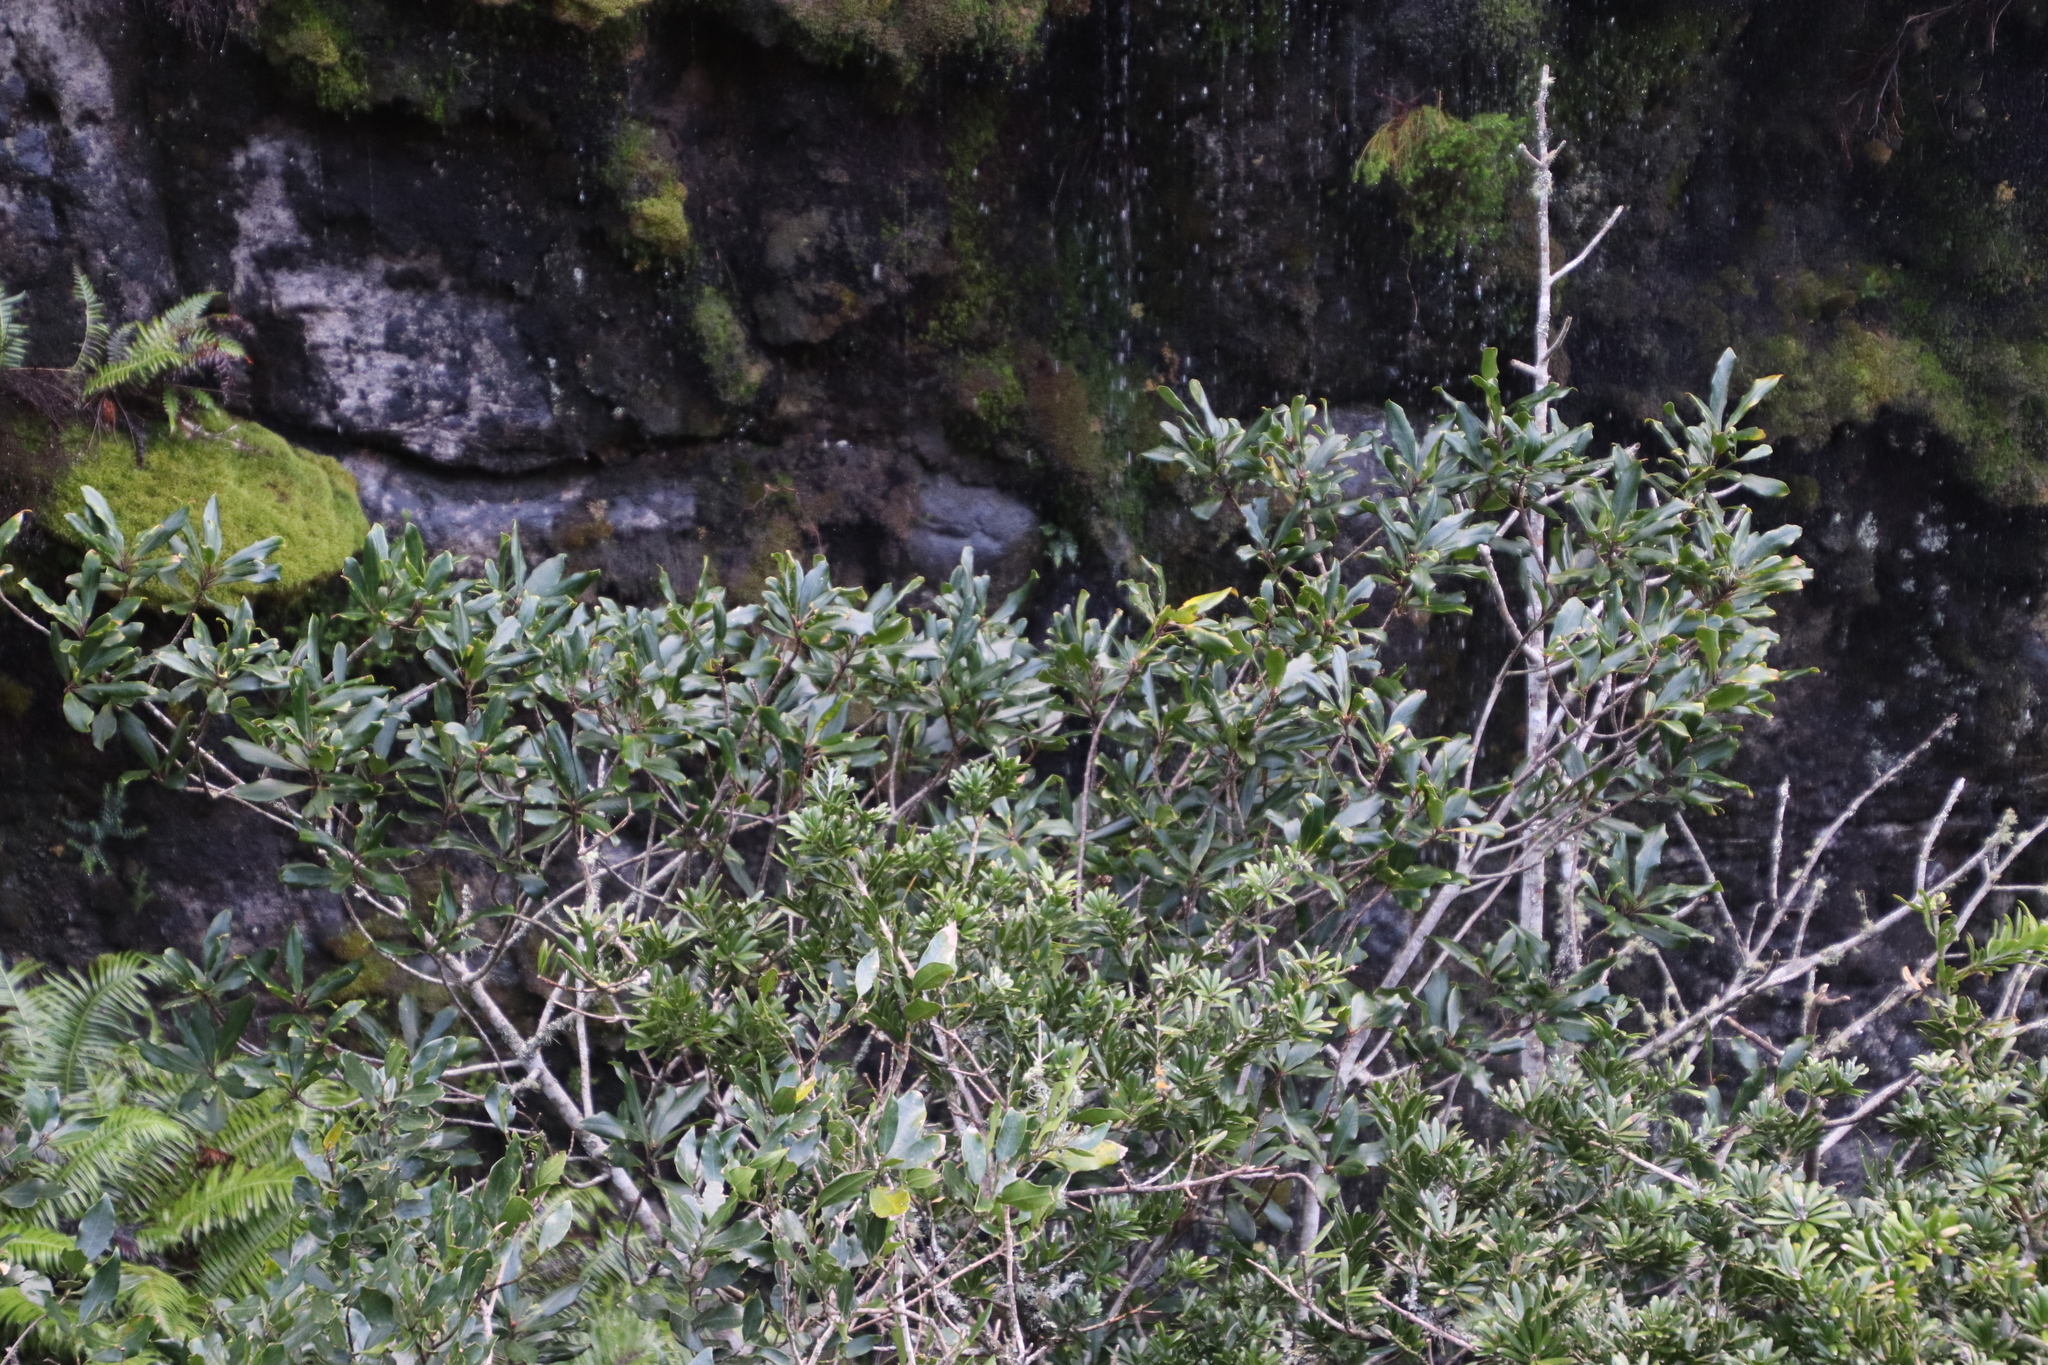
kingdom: Plantae
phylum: Tracheophyta
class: Magnoliopsida
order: Ericales
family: Primulaceae
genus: Myrsine
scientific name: Myrsine melanophloeos
